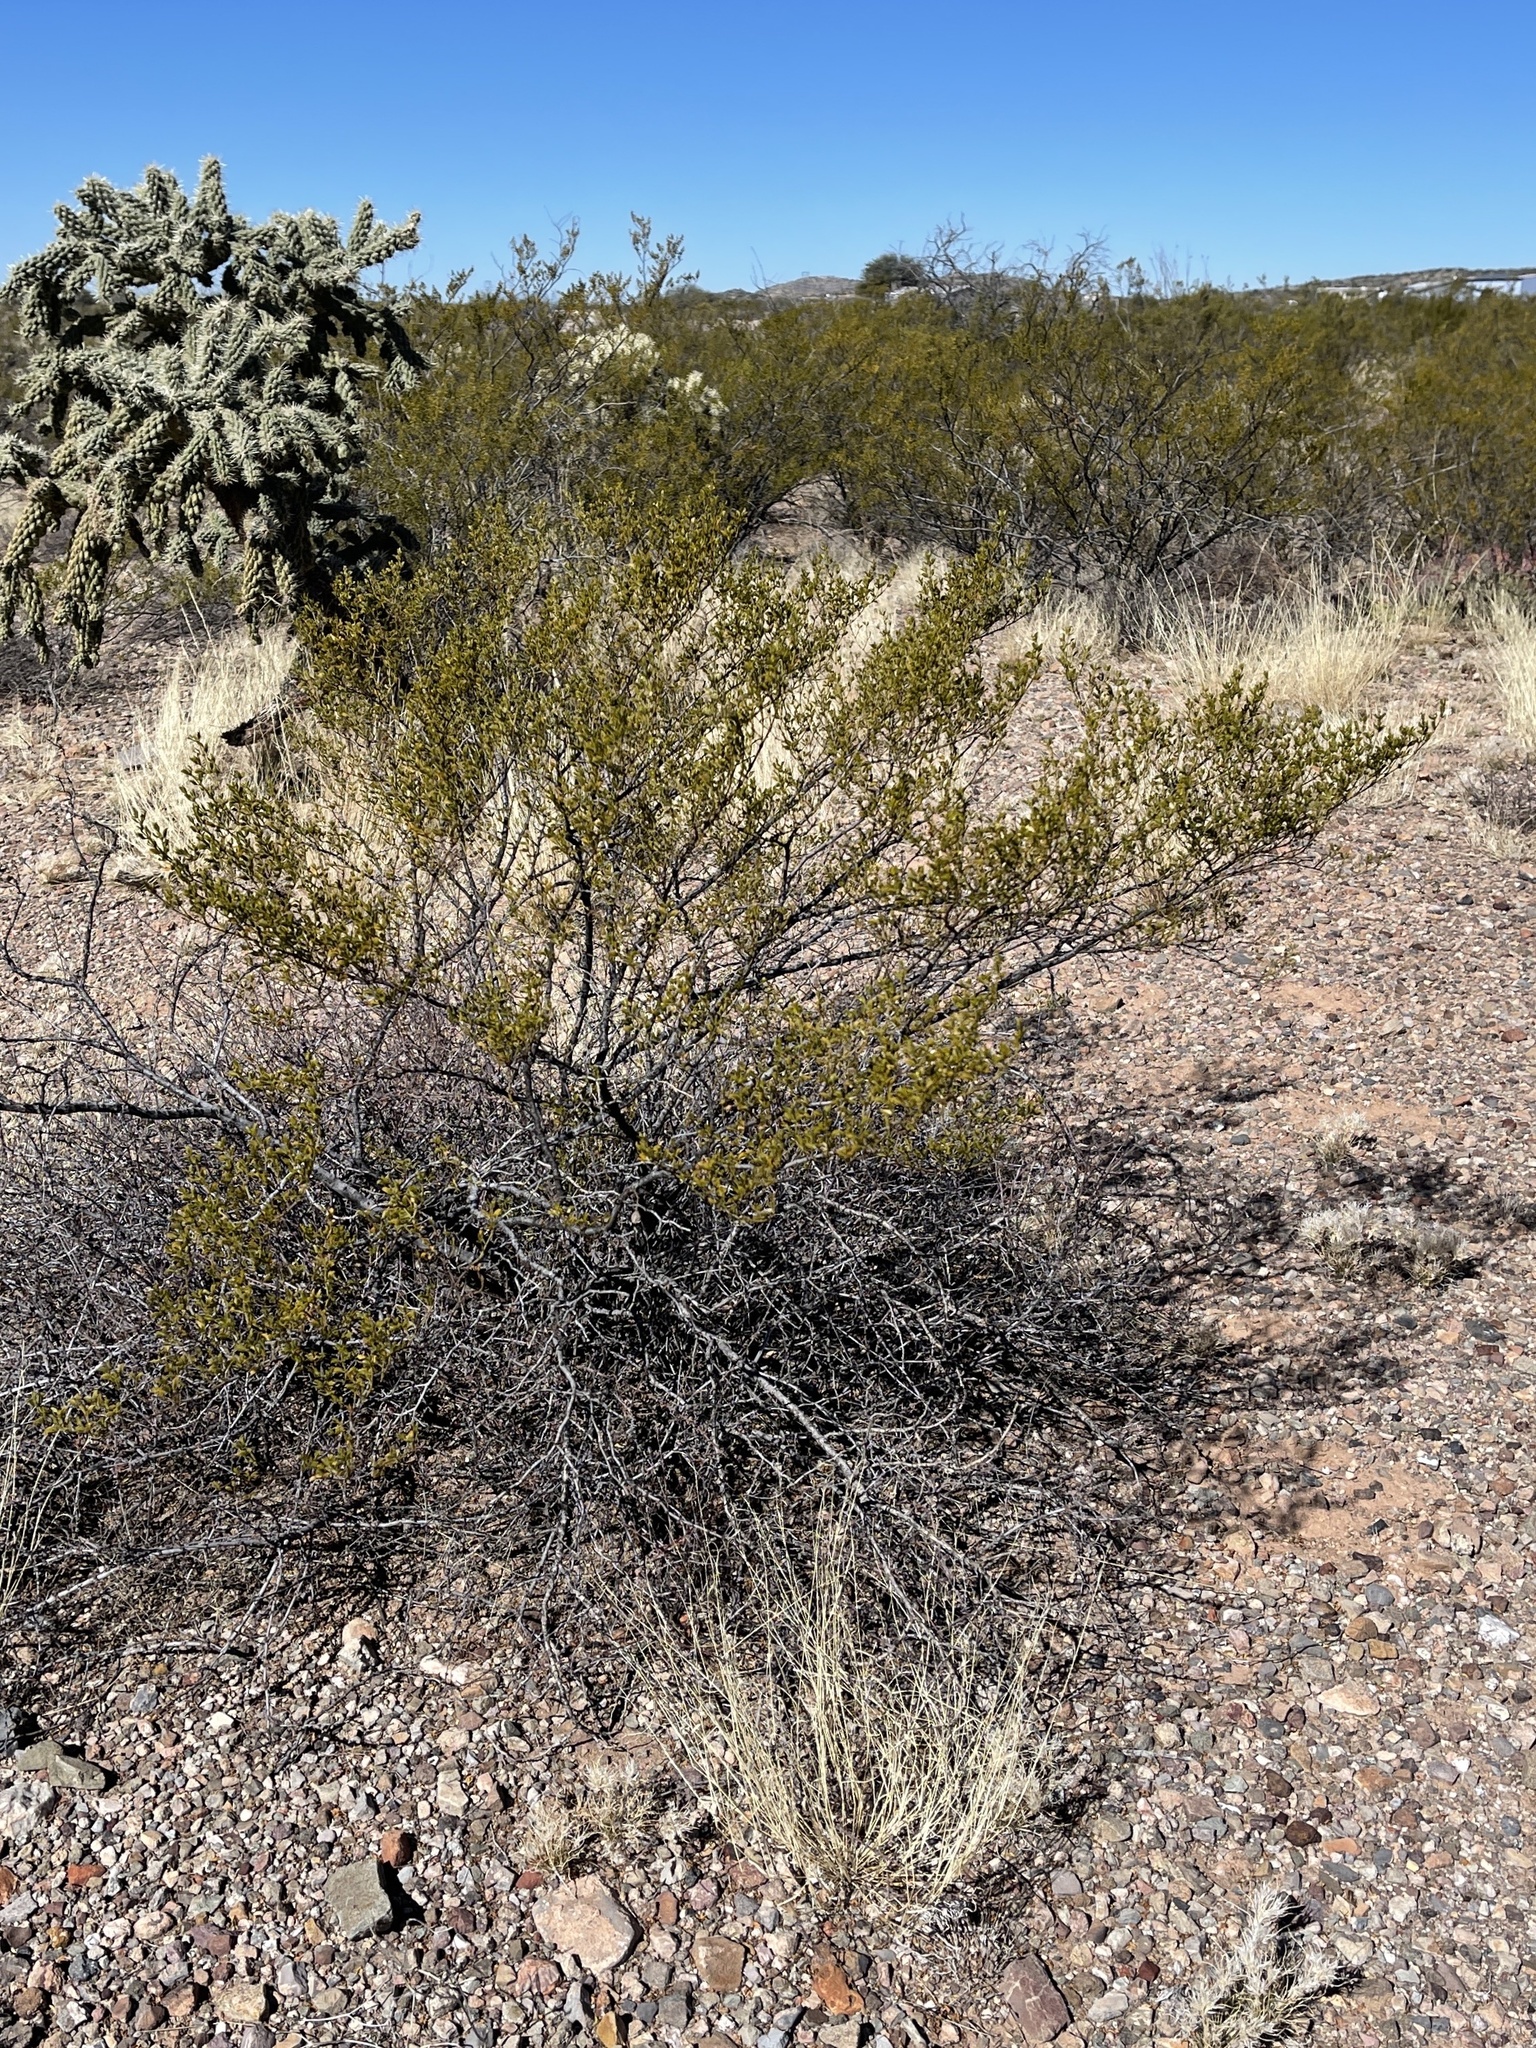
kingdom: Plantae
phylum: Tracheophyta
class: Magnoliopsida
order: Zygophyllales
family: Zygophyllaceae
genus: Larrea
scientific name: Larrea tridentata
